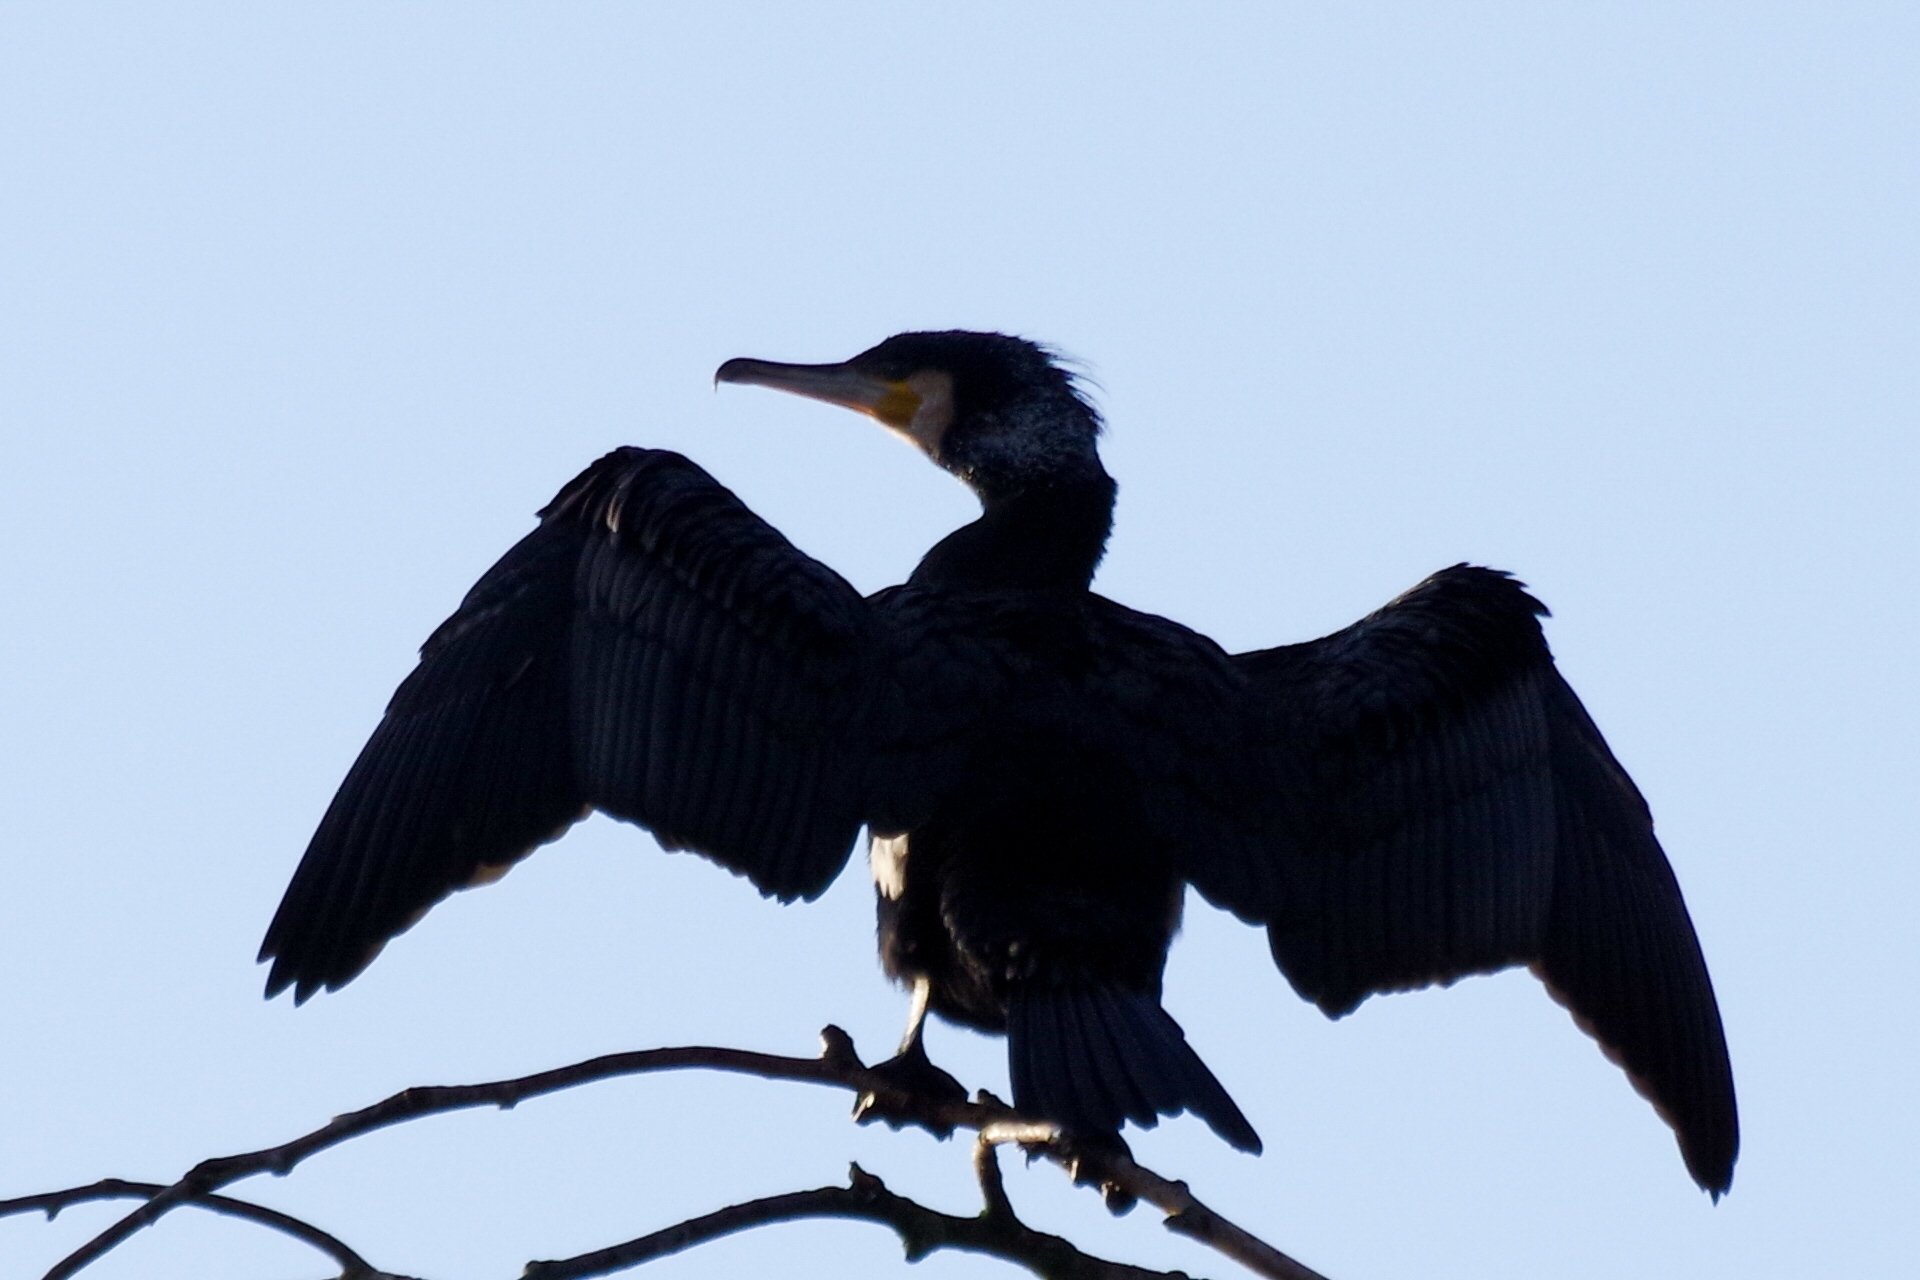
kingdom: Animalia
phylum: Chordata
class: Aves
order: Suliformes
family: Phalacrocoracidae
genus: Phalacrocorax
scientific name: Phalacrocorax carbo
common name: Great cormorant
